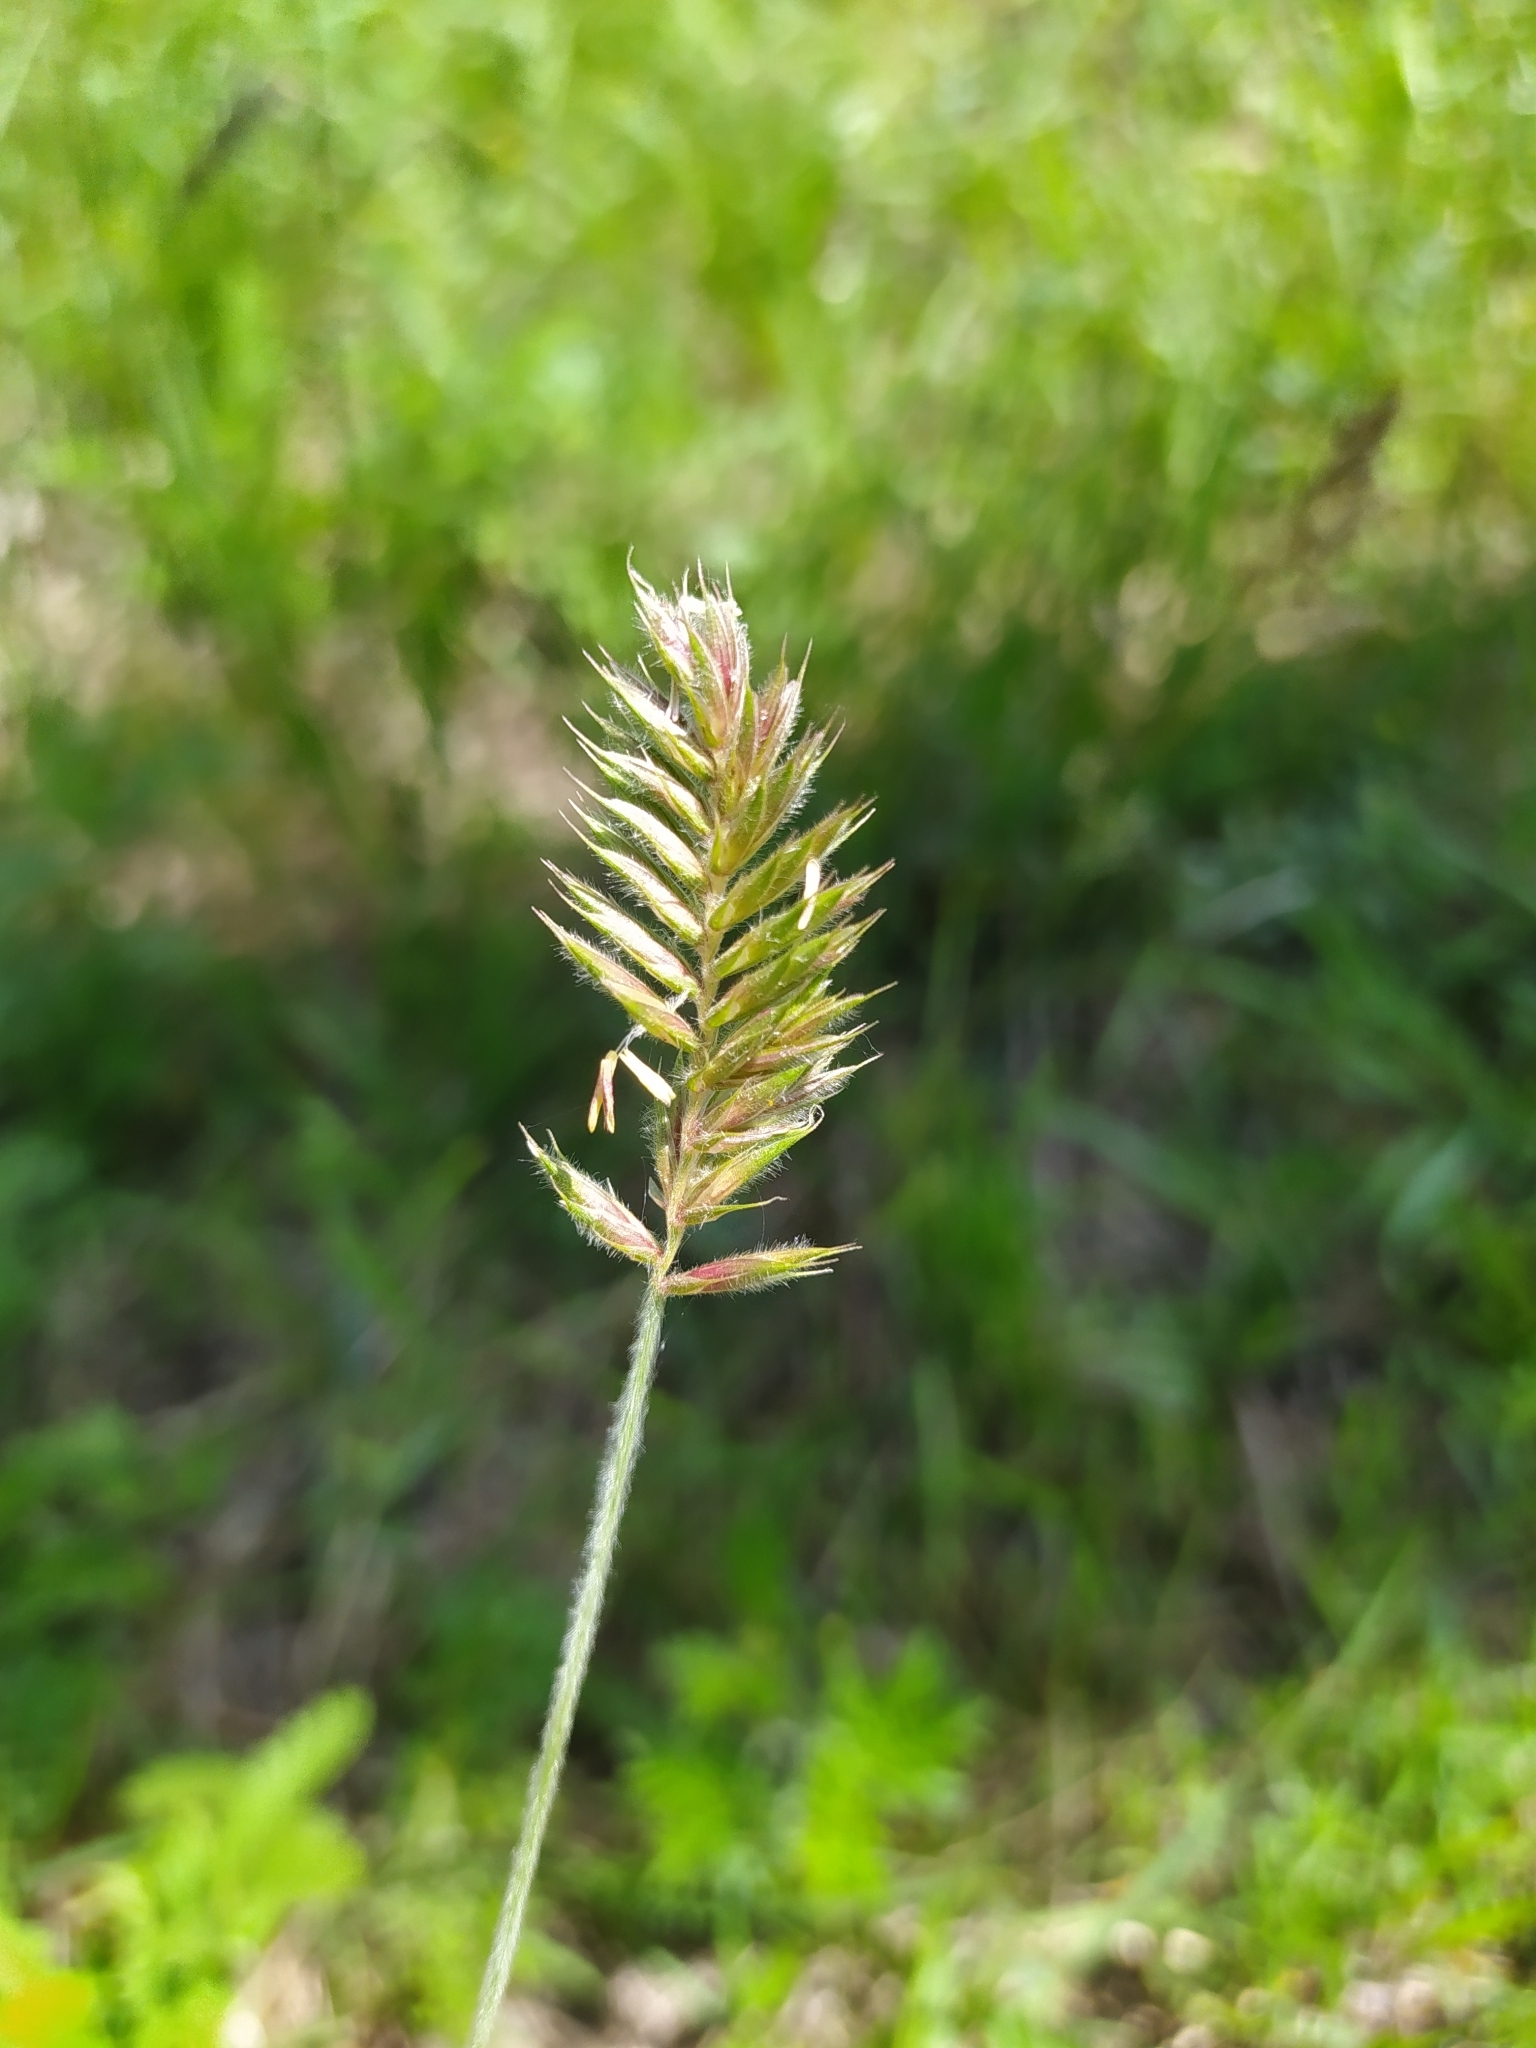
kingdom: Plantae
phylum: Tracheophyta
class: Liliopsida
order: Poales
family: Poaceae
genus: Agropyron
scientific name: Agropyron cristatum
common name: Crested wheatgrass
